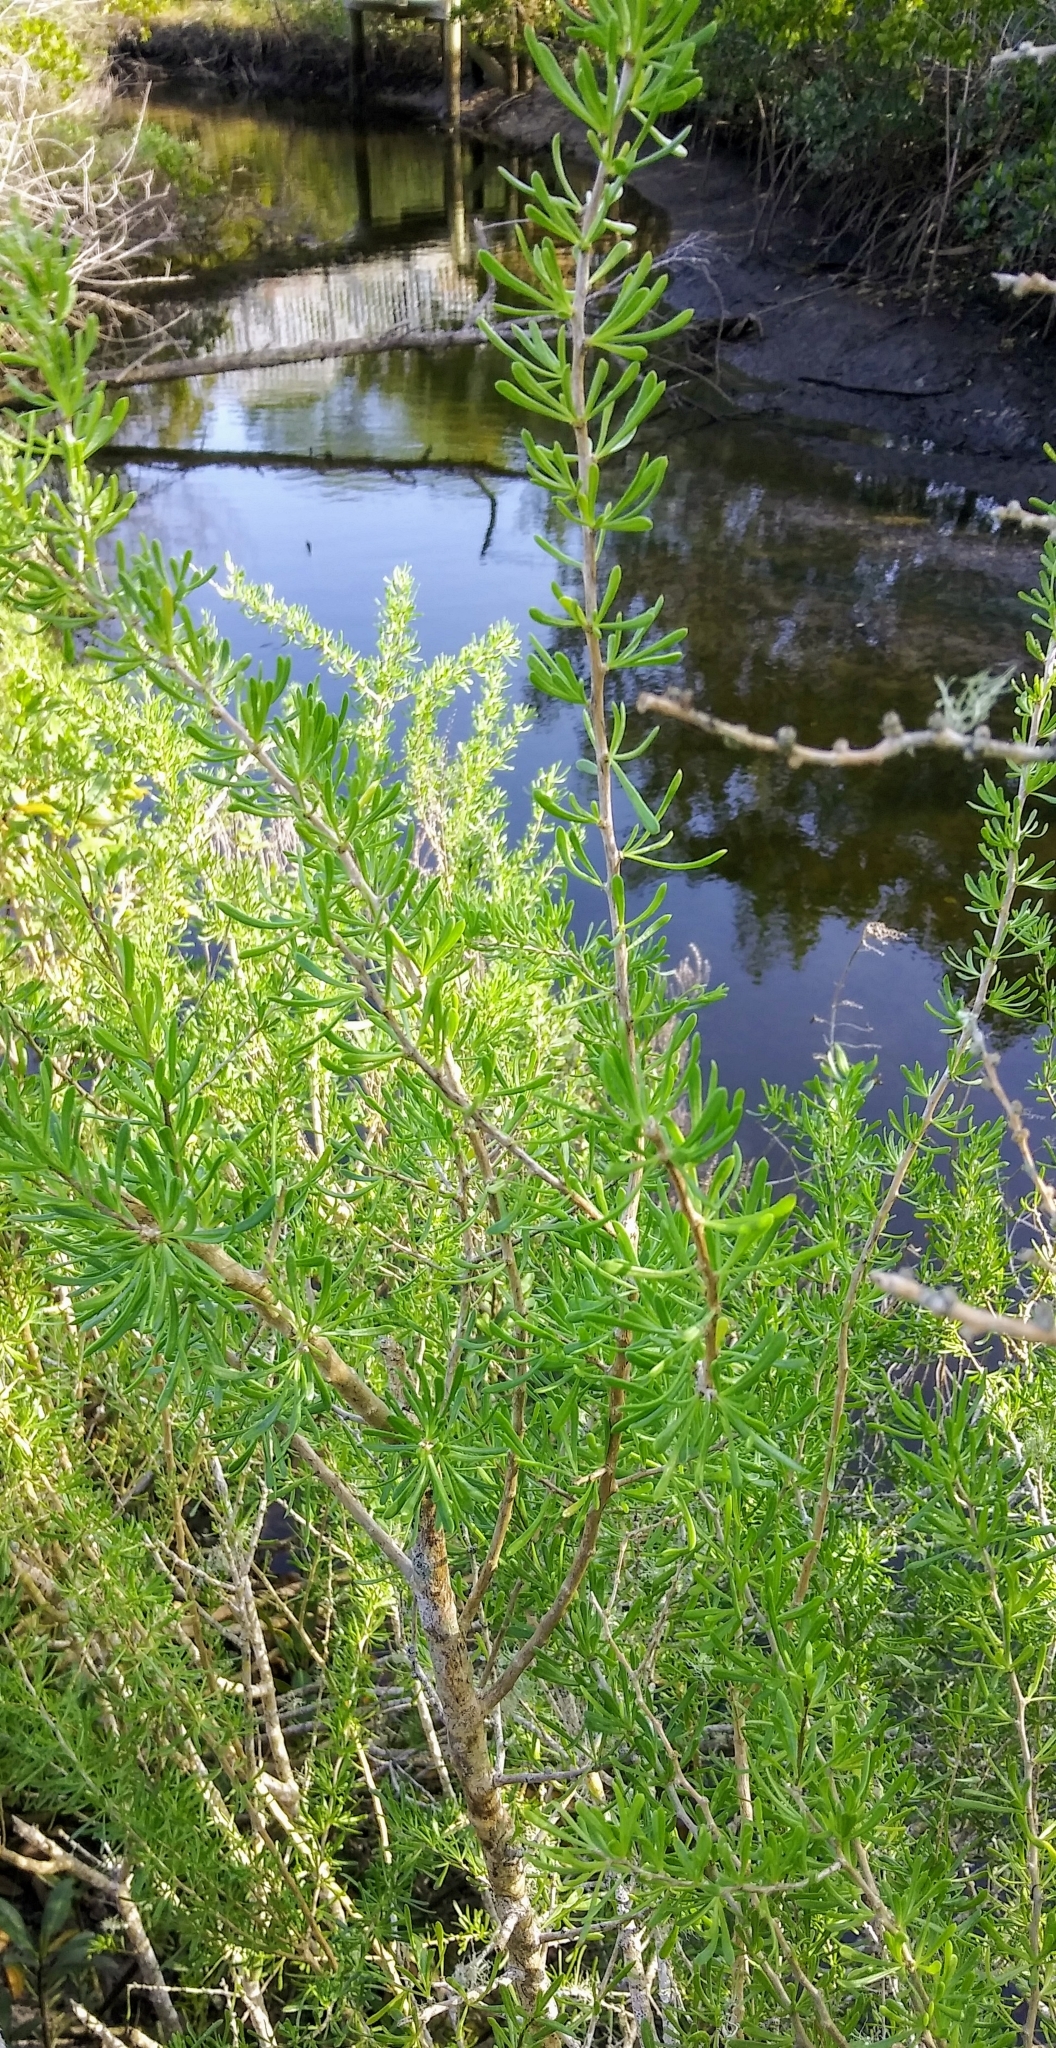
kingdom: Plantae
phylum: Tracheophyta
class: Magnoliopsida
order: Solanales
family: Solanaceae
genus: Lycium
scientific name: Lycium carolinianum
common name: Christmasberry
